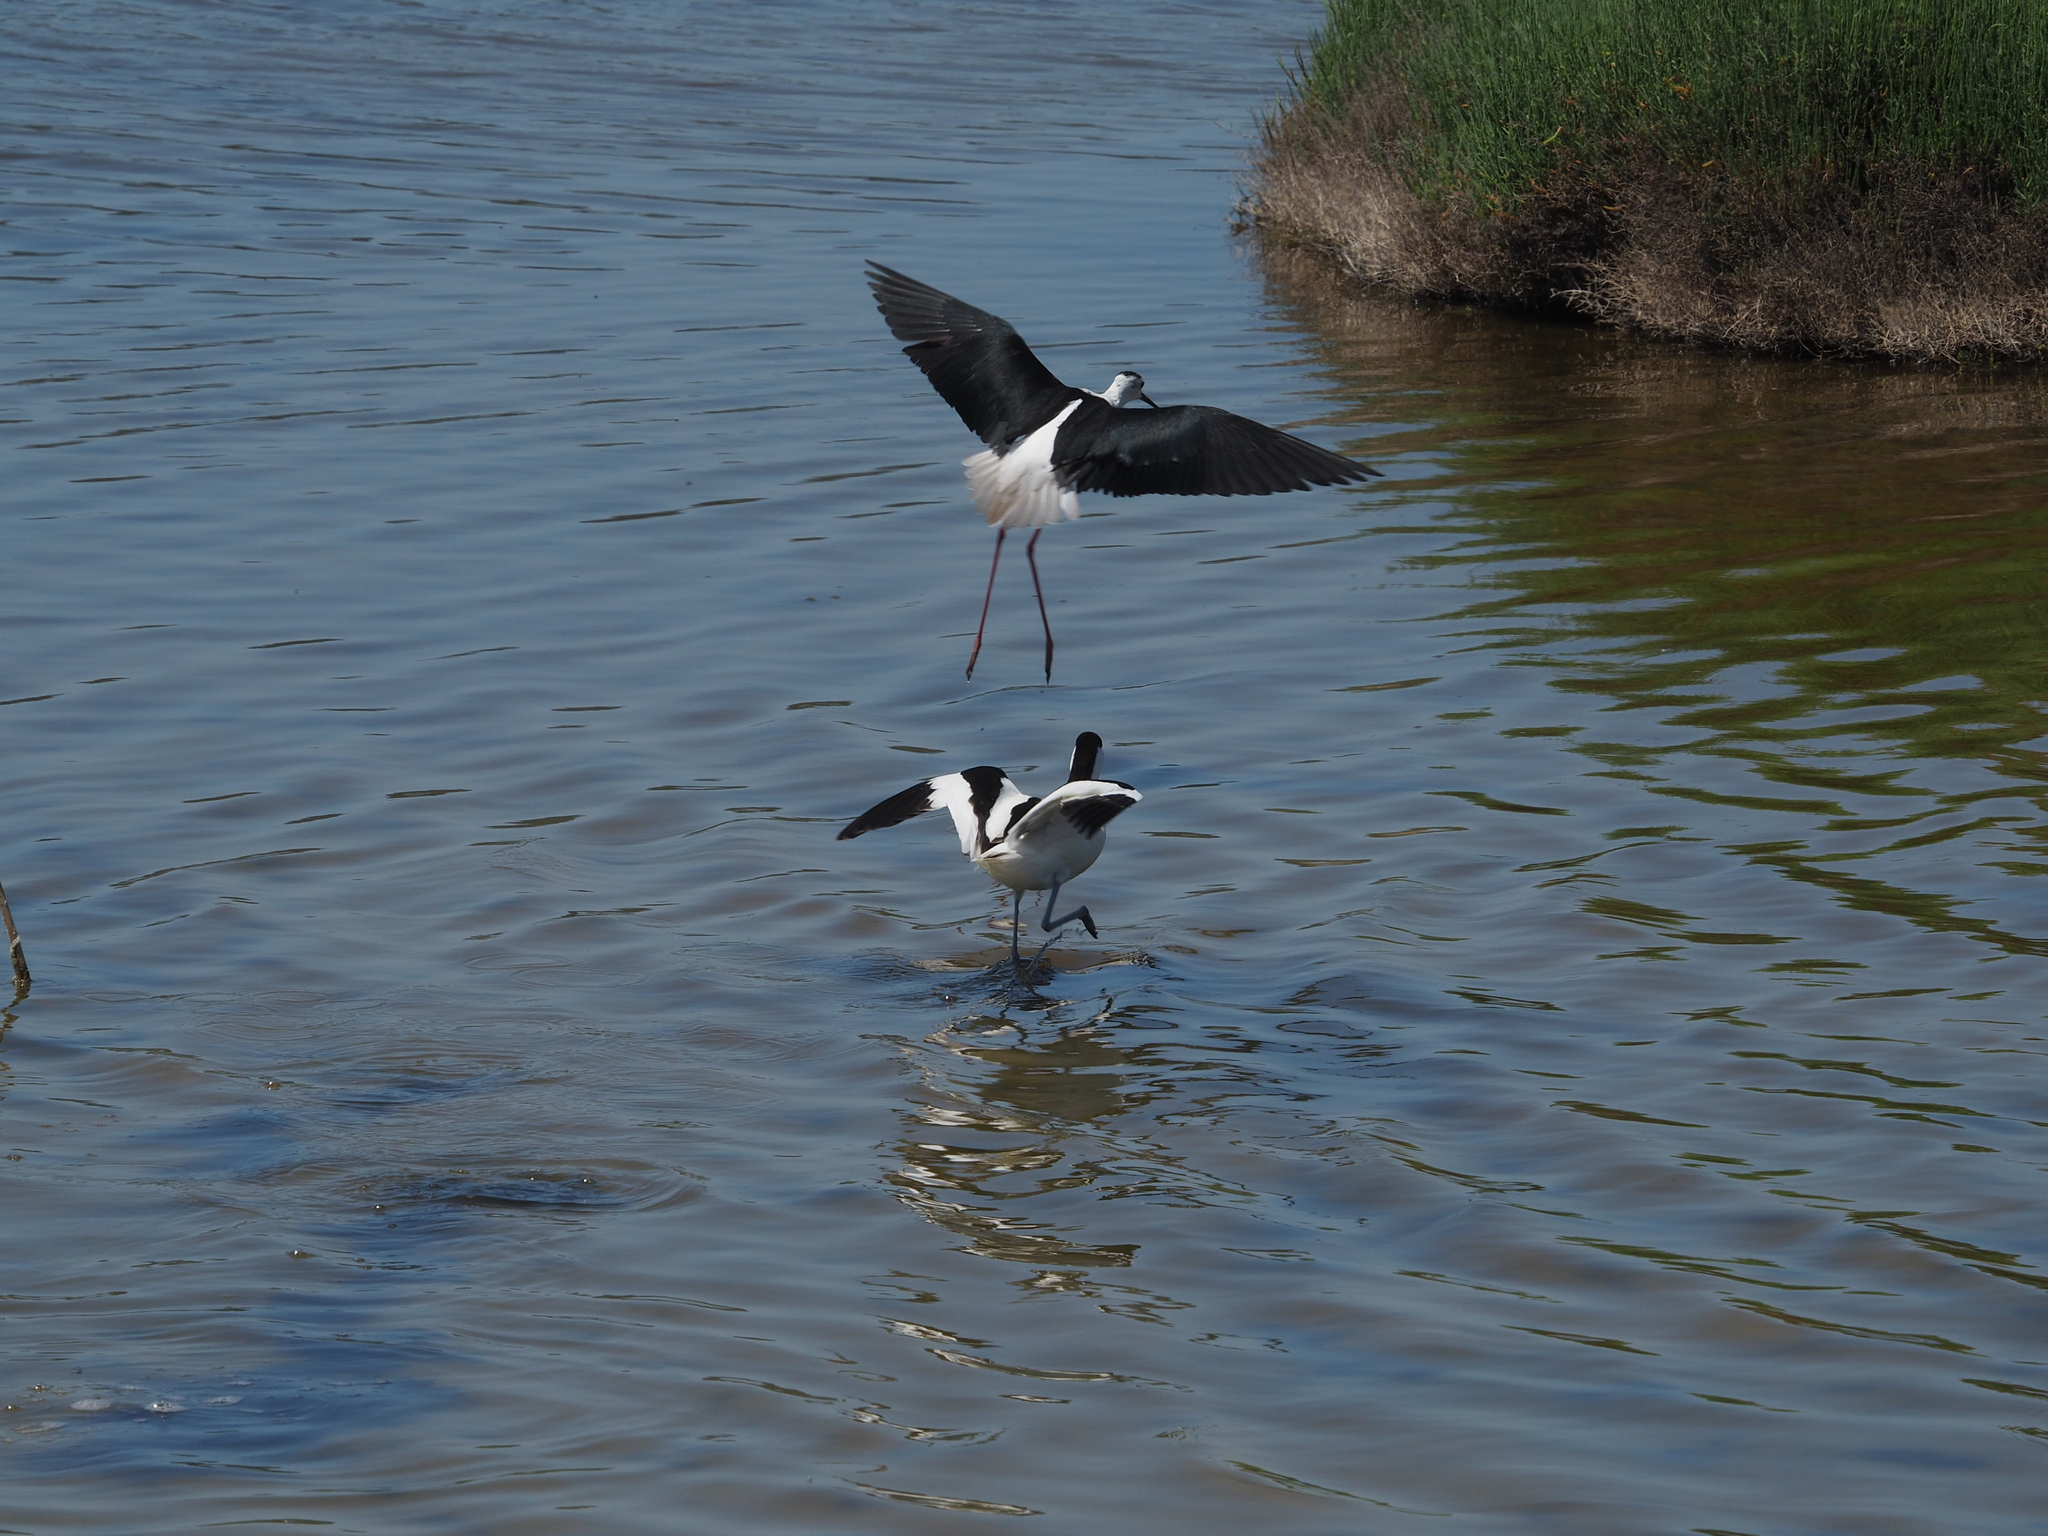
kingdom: Animalia
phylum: Chordata
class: Aves
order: Charadriiformes
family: Recurvirostridae
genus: Recurvirostra
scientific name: Recurvirostra avosetta
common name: Pied avocet
